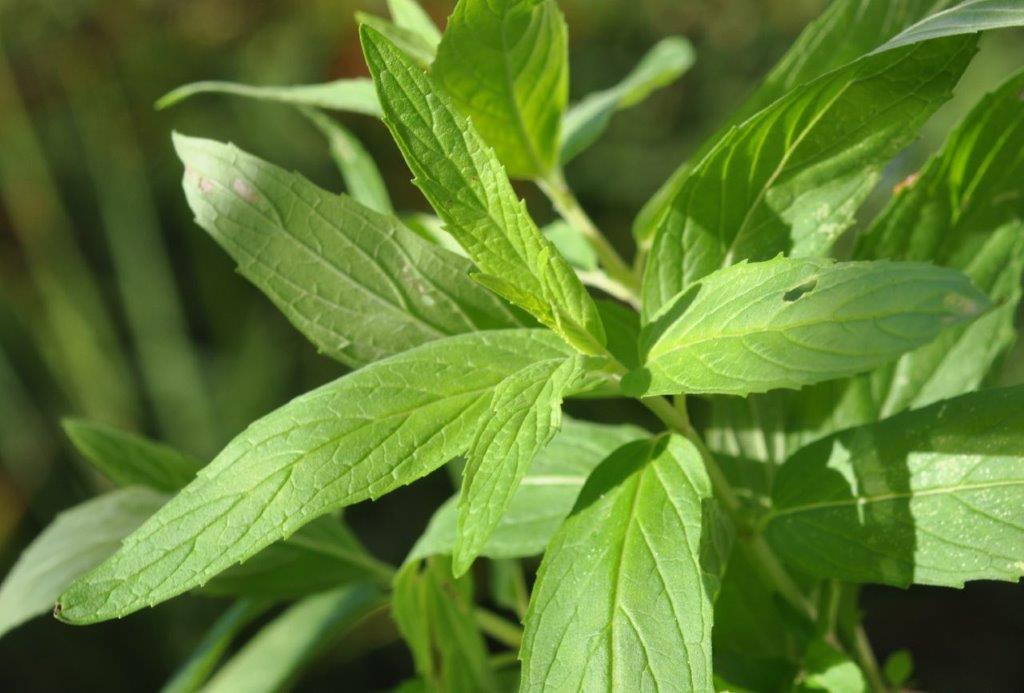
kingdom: Plantae
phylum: Tracheophyta
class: Magnoliopsida
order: Lamiales
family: Lamiaceae
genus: Mentha
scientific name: Mentha longifolia
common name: Horse mint
